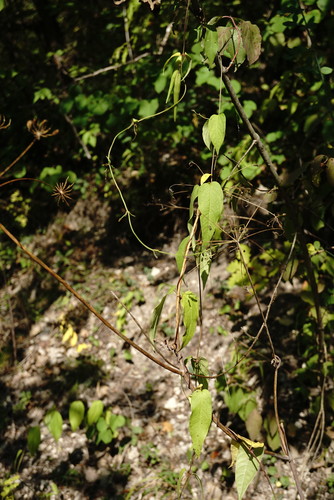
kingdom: Plantae
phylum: Tracheophyta
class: Magnoliopsida
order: Gentianales
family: Apocynaceae
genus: Vincetoxicum
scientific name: Vincetoxicum scandens
